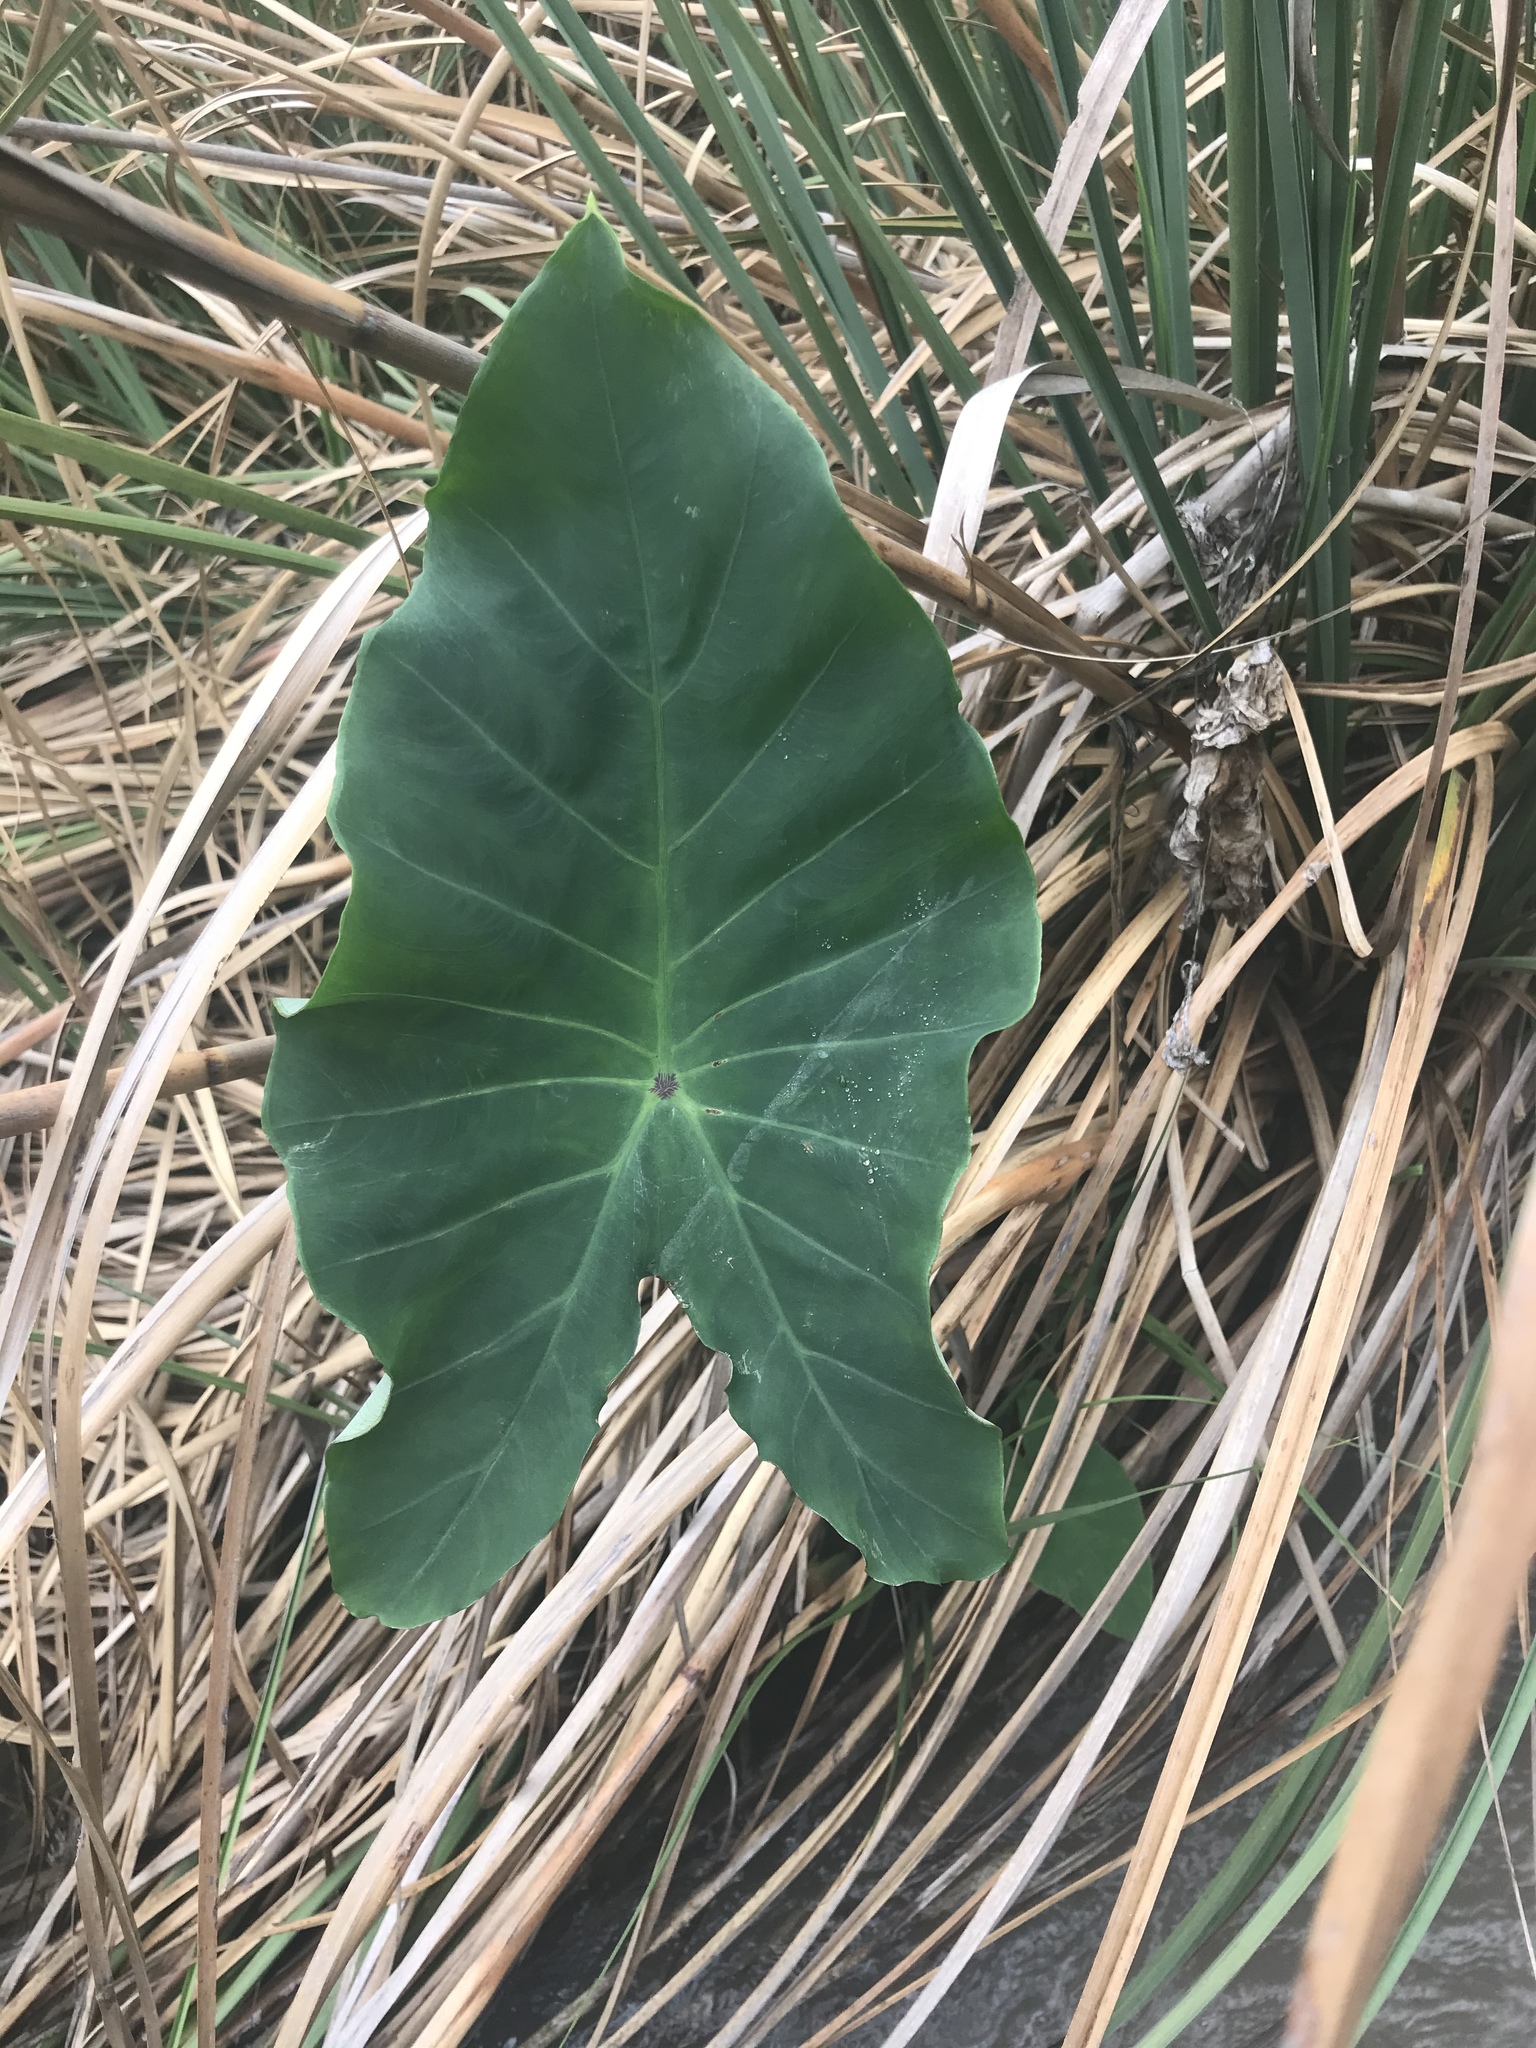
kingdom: Plantae
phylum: Tracheophyta
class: Liliopsida
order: Alismatales
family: Araceae
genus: Colocasia
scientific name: Colocasia esculenta
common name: Taro
